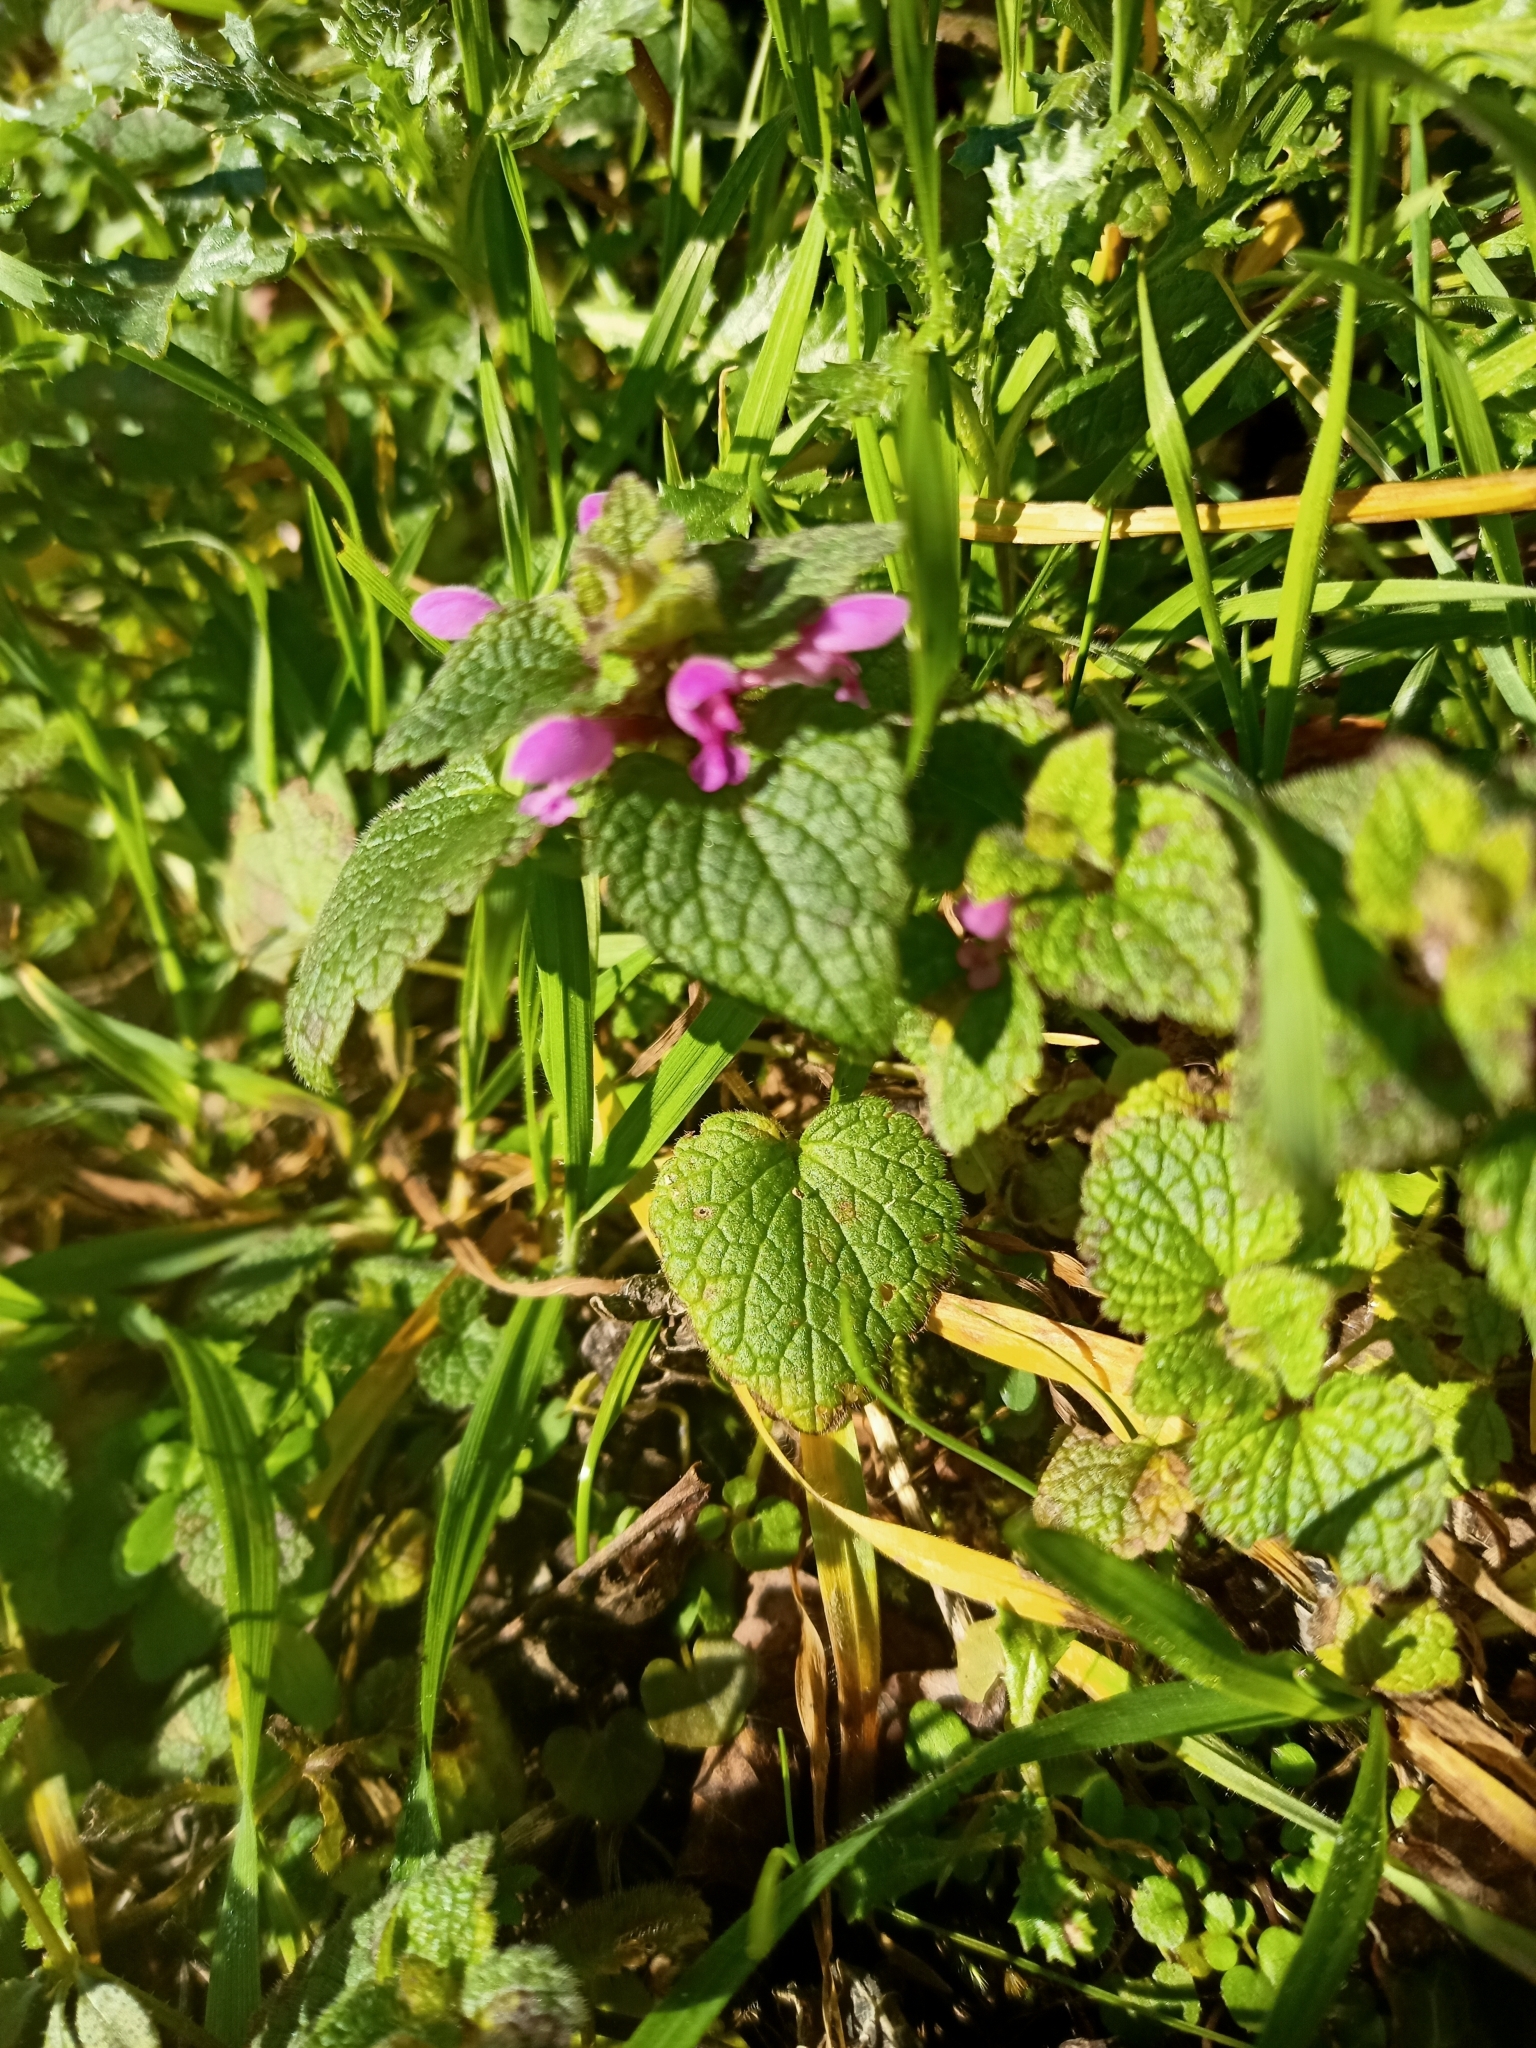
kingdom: Plantae
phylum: Tracheophyta
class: Magnoliopsida
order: Lamiales
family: Lamiaceae
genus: Lamium
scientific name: Lamium purpureum
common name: Red dead-nettle
